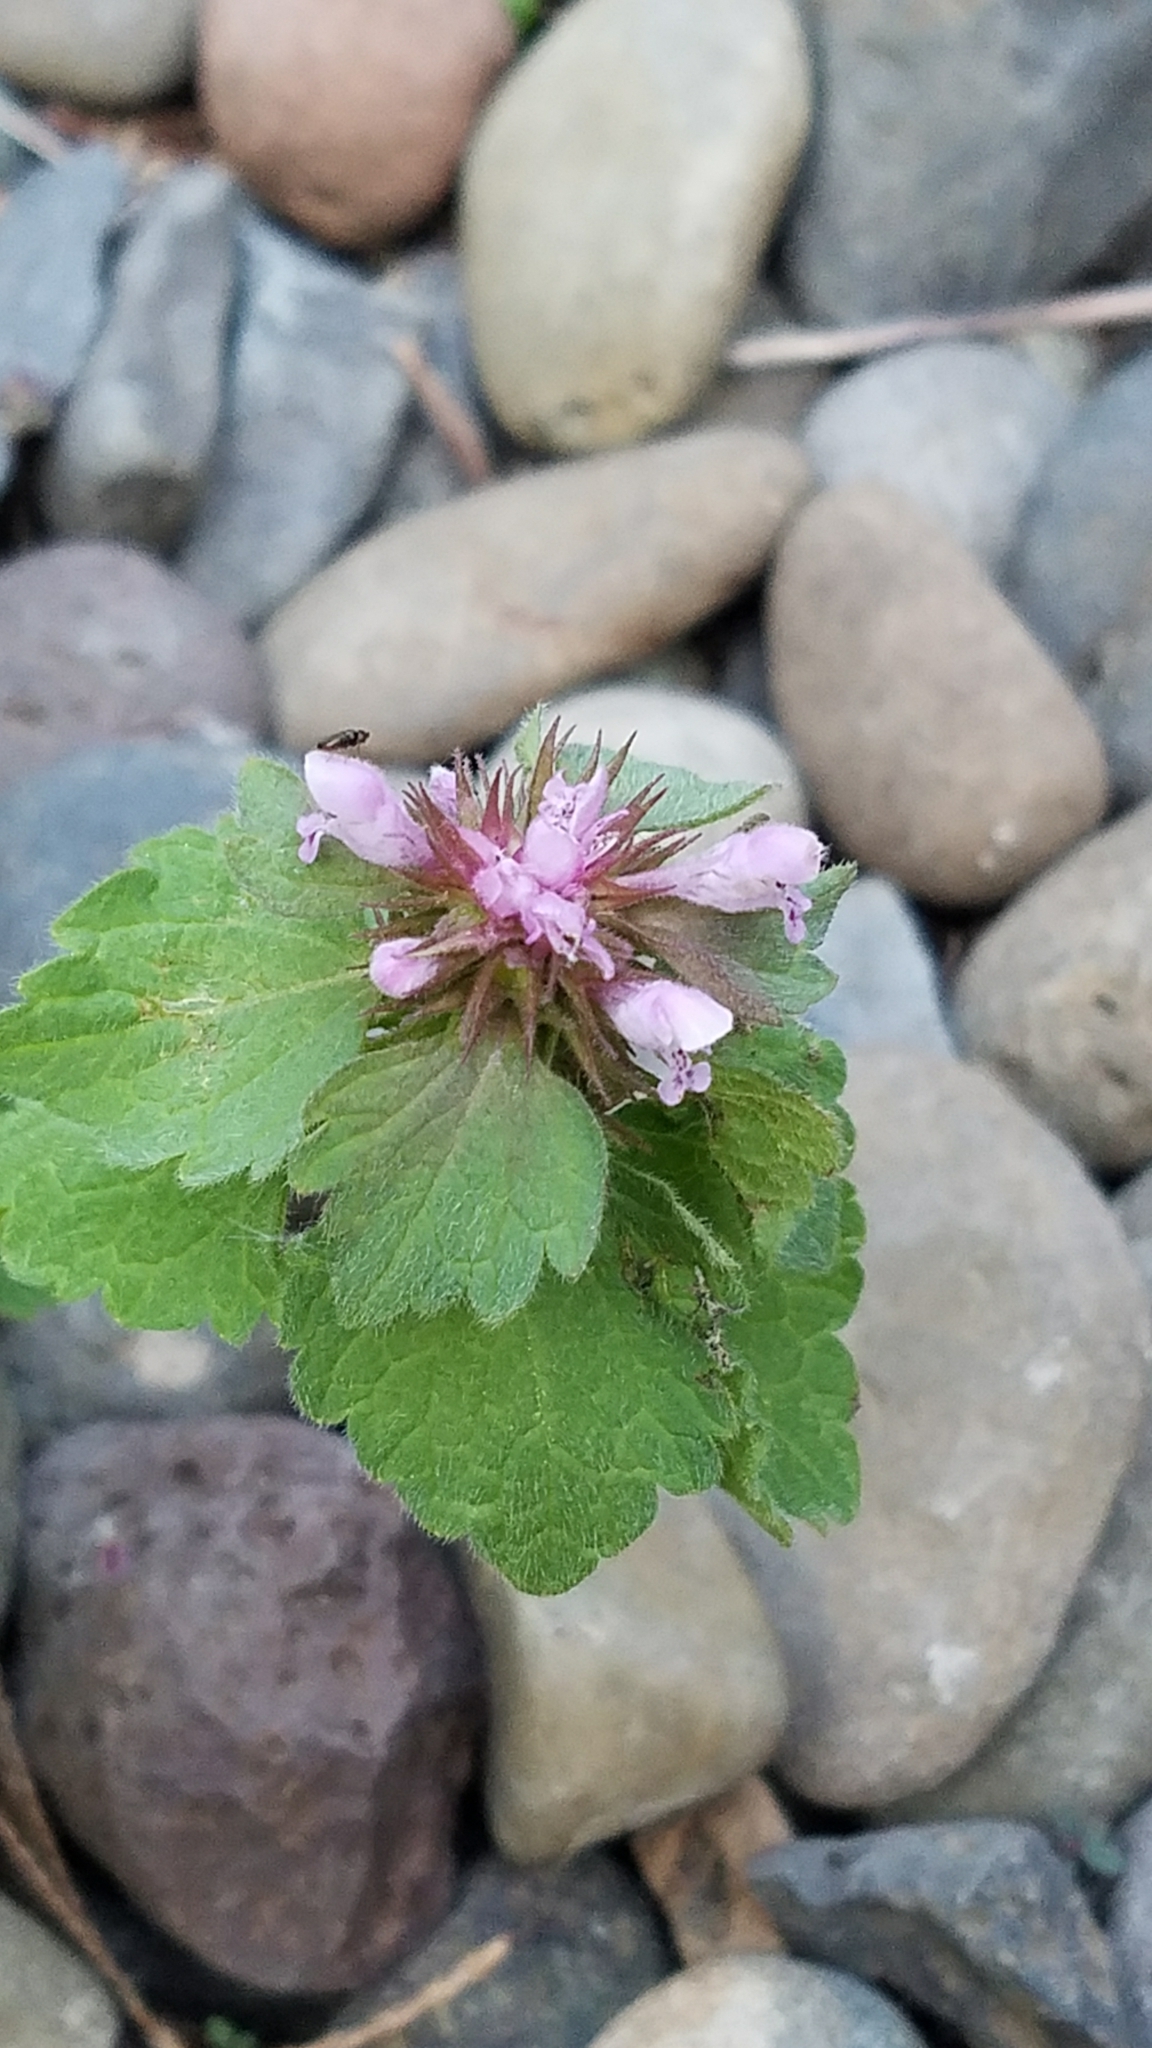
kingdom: Plantae
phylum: Tracheophyta
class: Magnoliopsida
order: Lamiales
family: Lamiaceae
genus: Lamium
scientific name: Lamium purpureum
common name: Red dead-nettle
